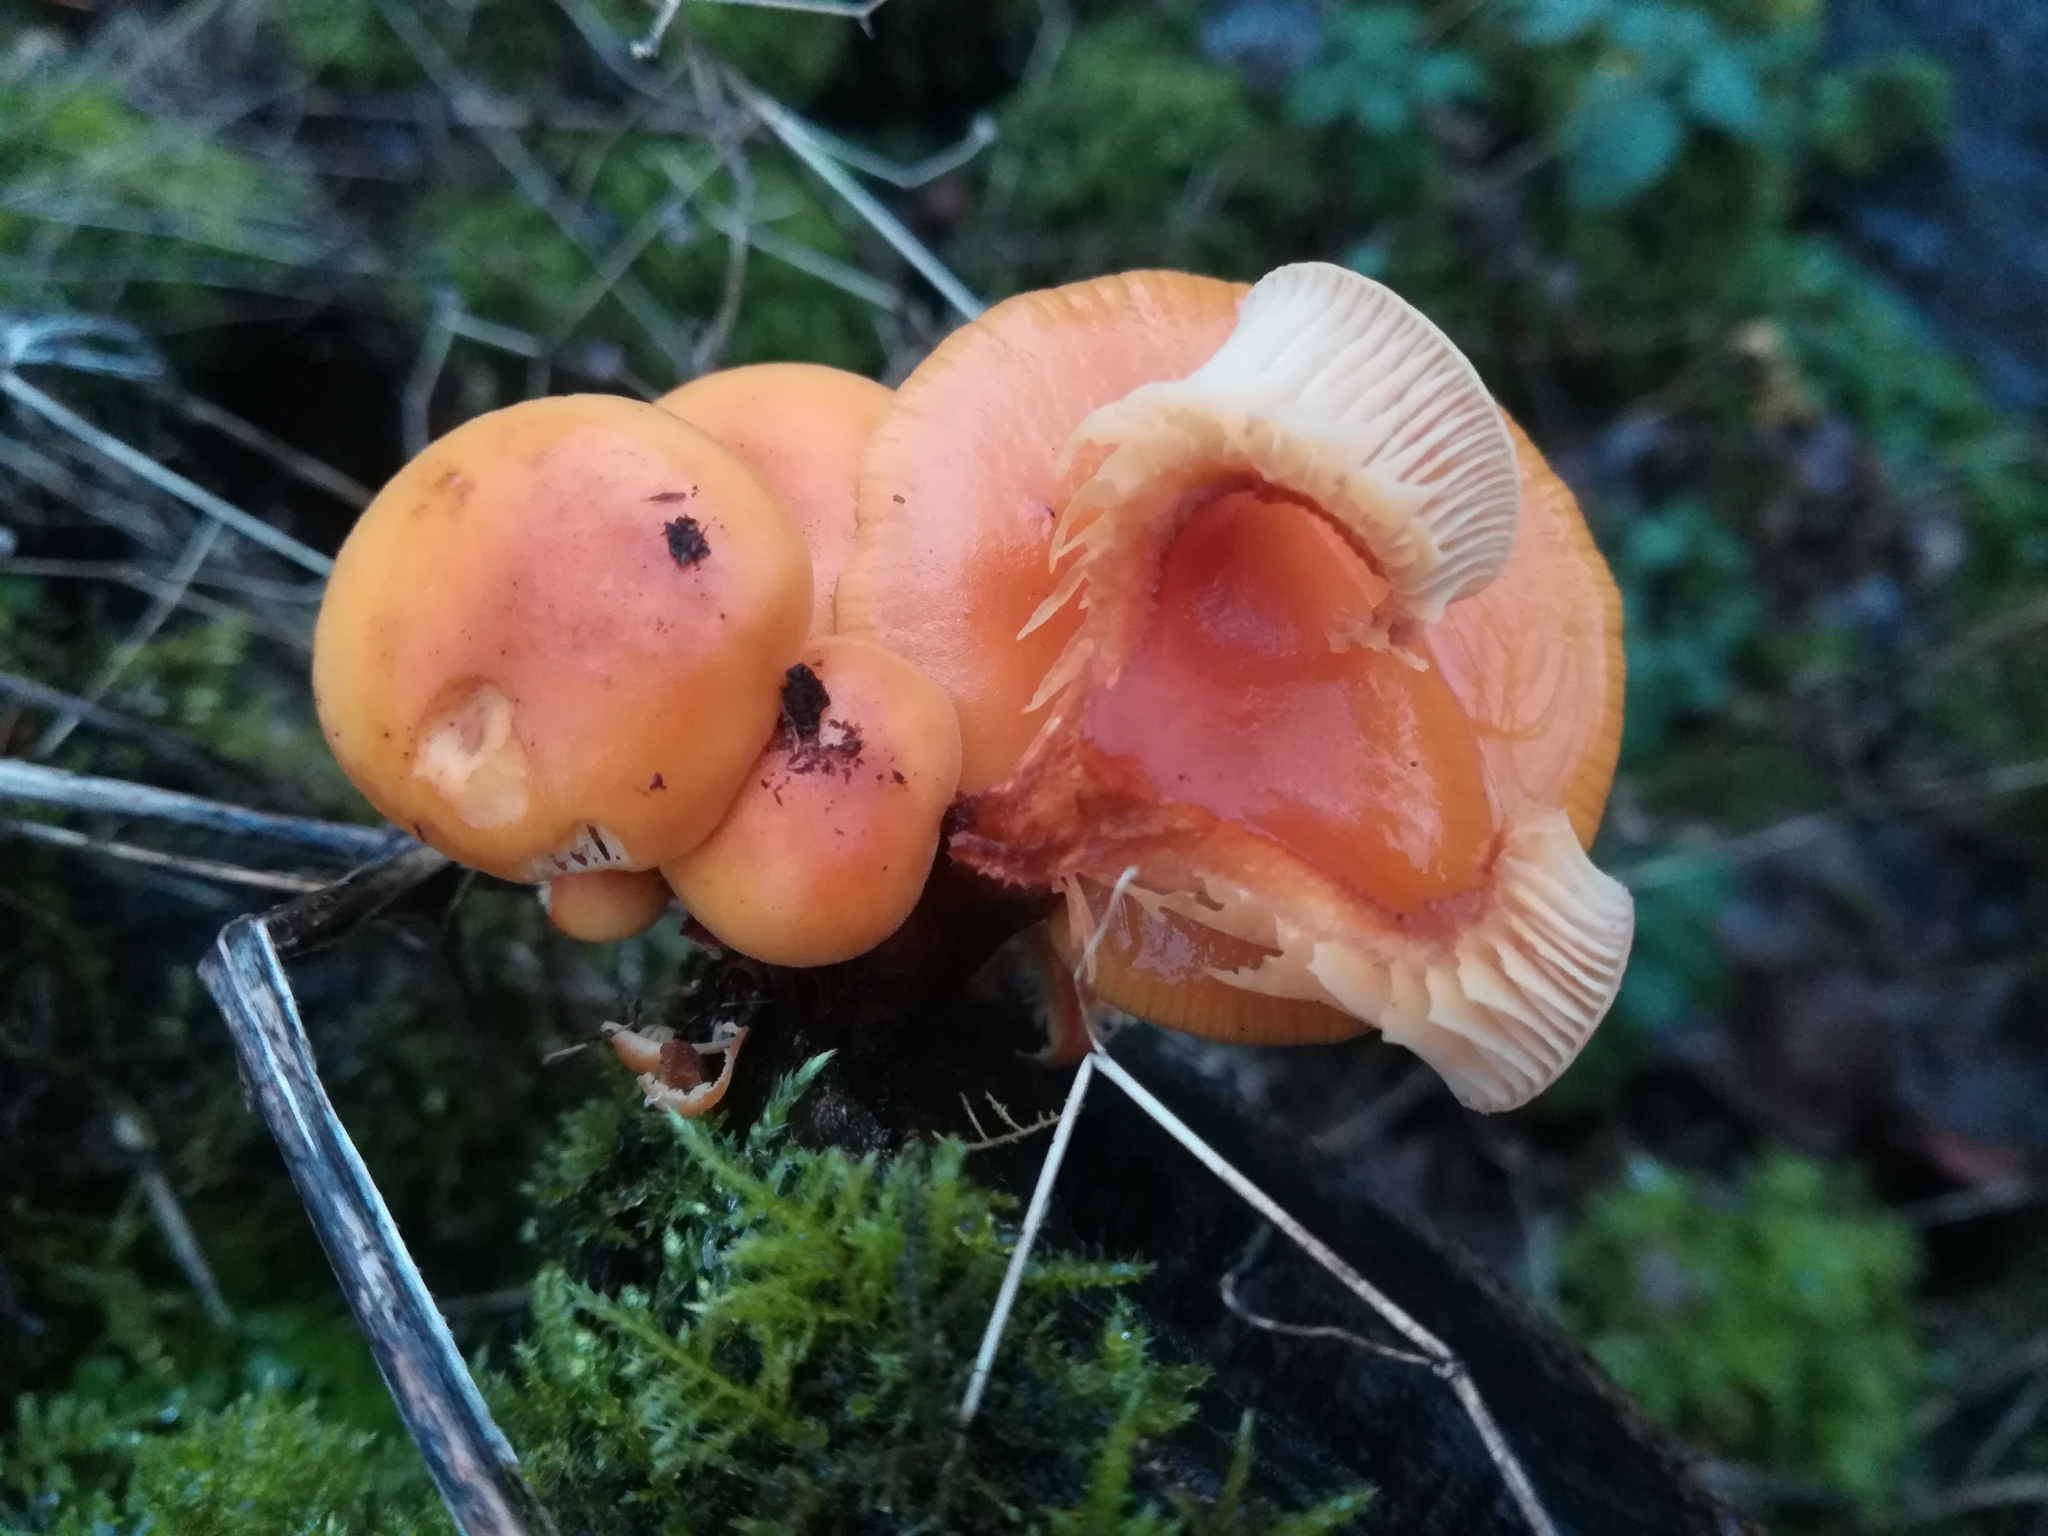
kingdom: Fungi
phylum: Basidiomycota
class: Agaricomycetes
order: Agaricales
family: Physalacriaceae
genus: Flammulina
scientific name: Flammulina
